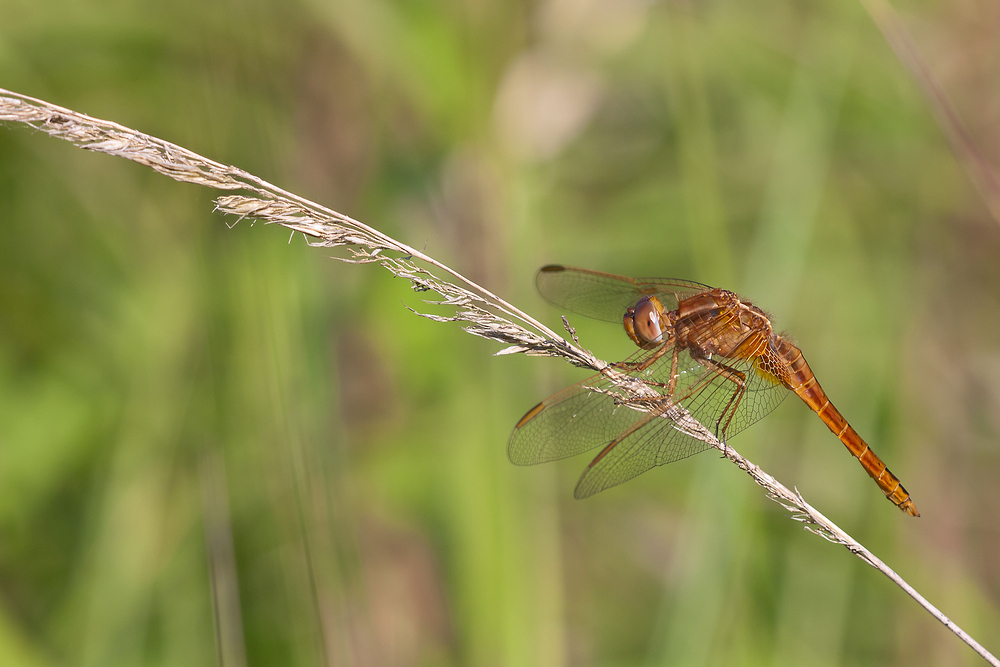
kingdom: Animalia
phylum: Arthropoda
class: Insecta
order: Odonata
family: Libellulidae
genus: Crocothemis
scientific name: Crocothemis erythraea
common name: Scarlet dragonfly
